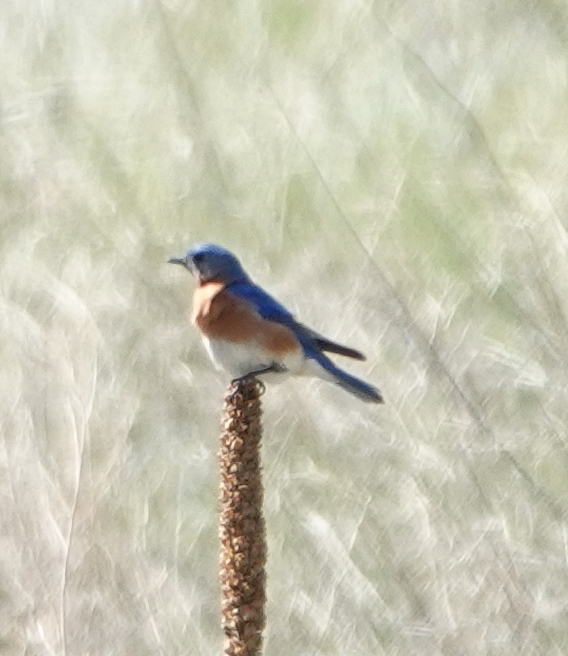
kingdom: Animalia
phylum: Chordata
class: Aves
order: Passeriformes
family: Turdidae
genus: Sialia
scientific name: Sialia sialis
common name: Eastern bluebird
